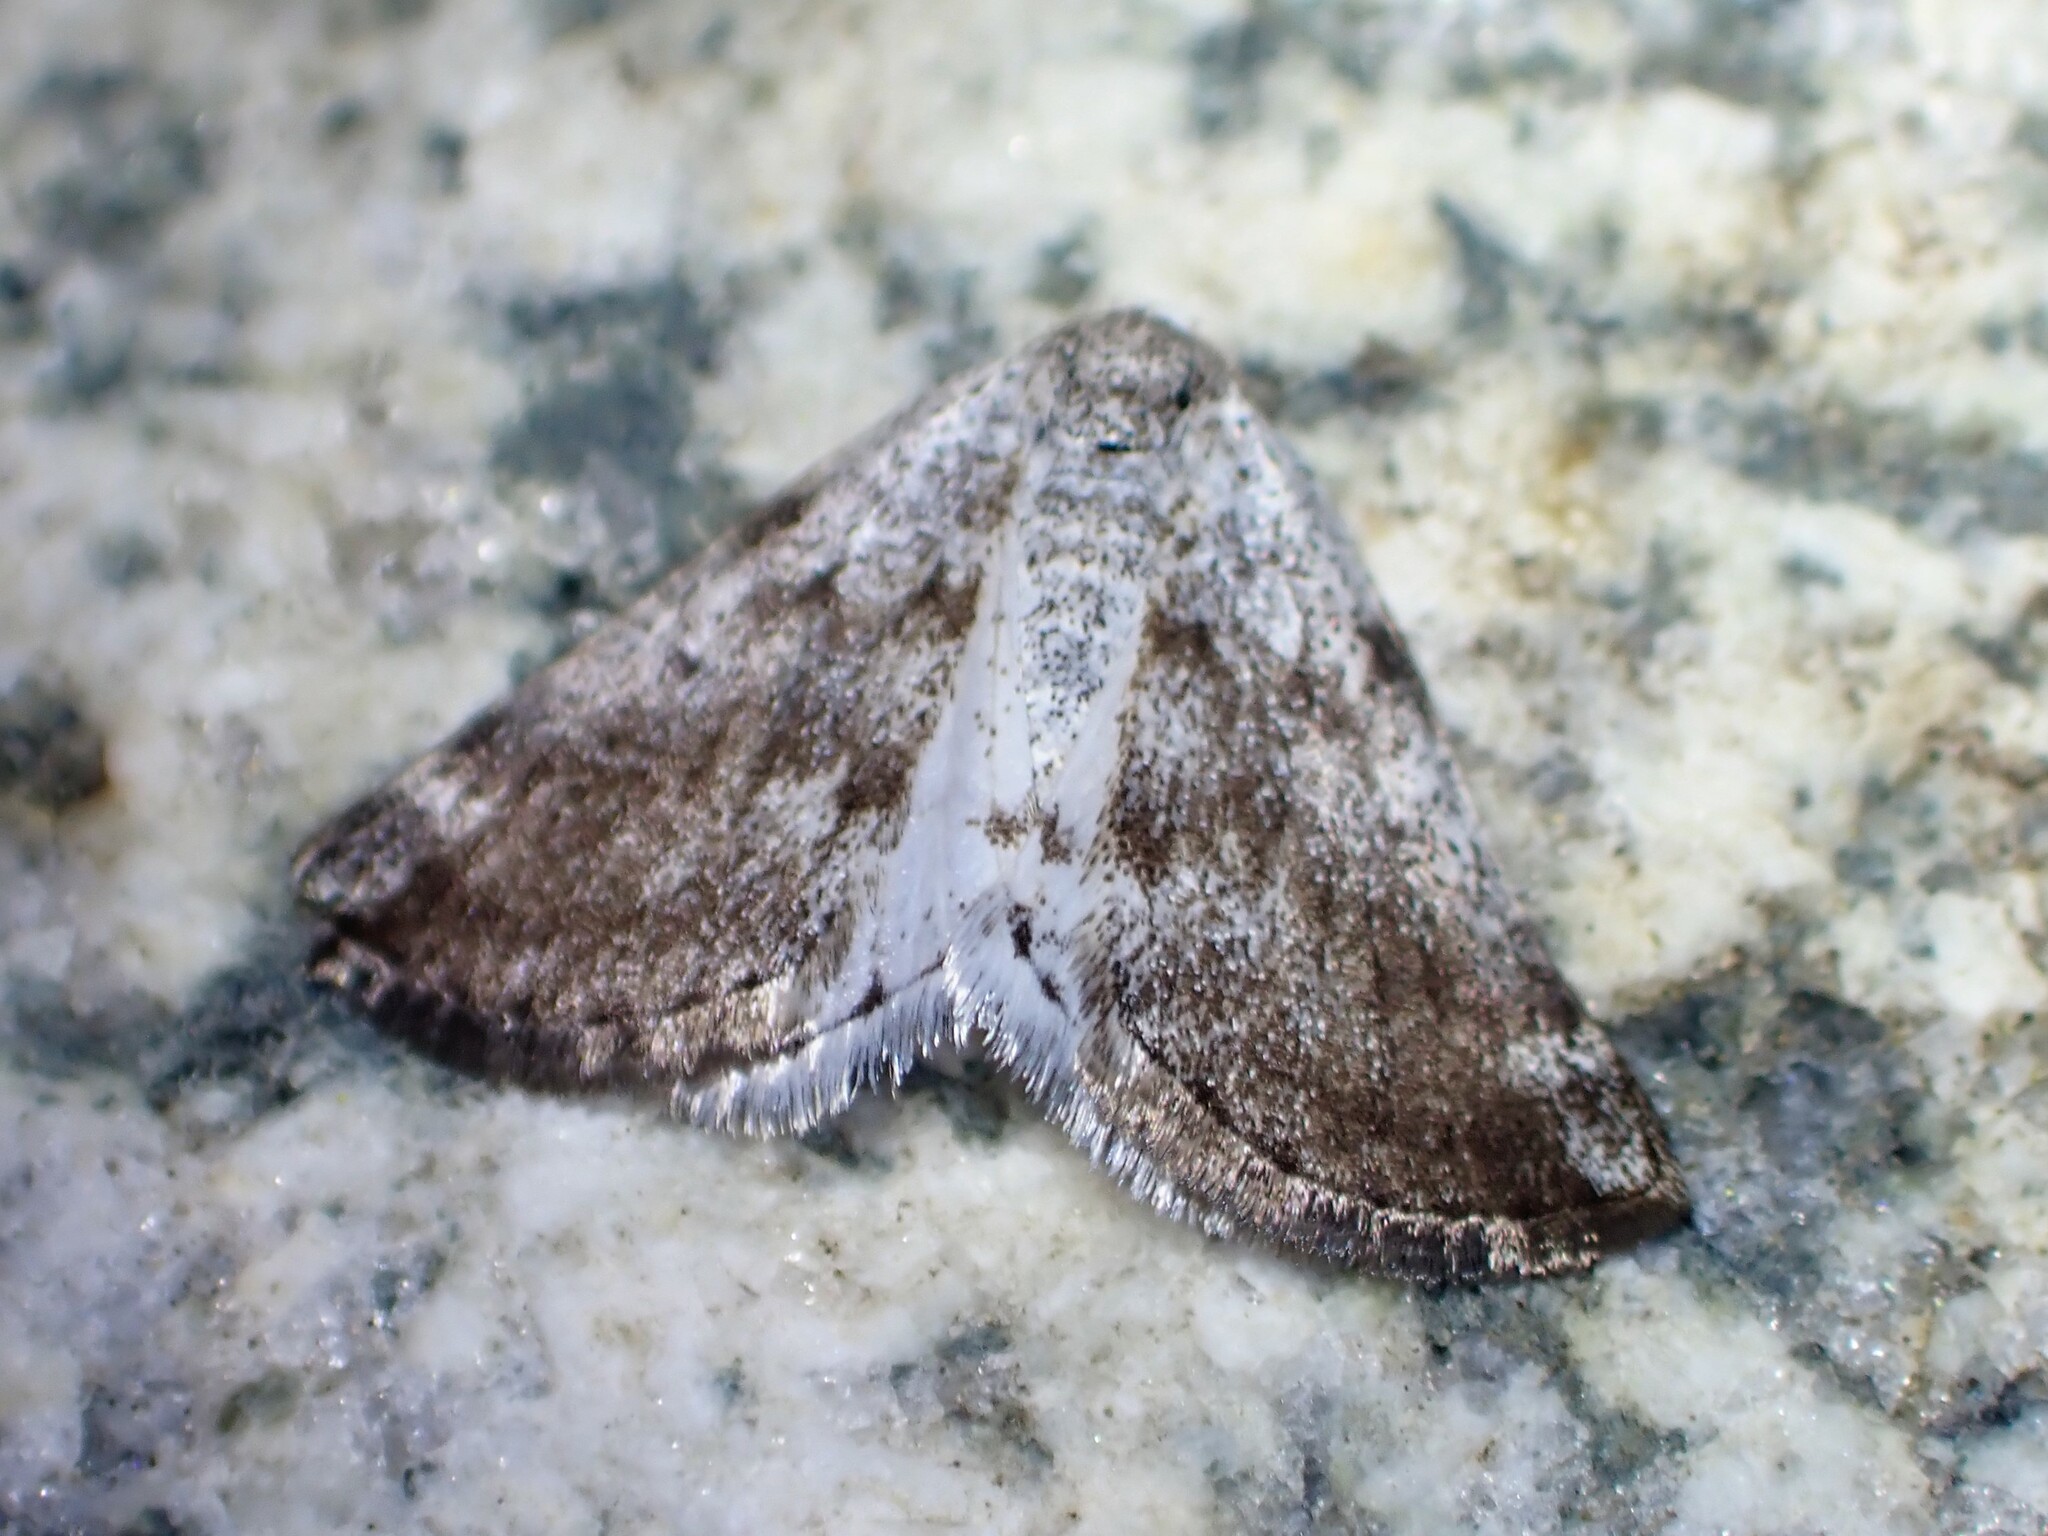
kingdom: Animalia
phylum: Arthropoda
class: Insecta
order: Lepidoptera
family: Geometridae
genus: Lomographa
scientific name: Lomographa semiclarata
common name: Bluish spring moth
